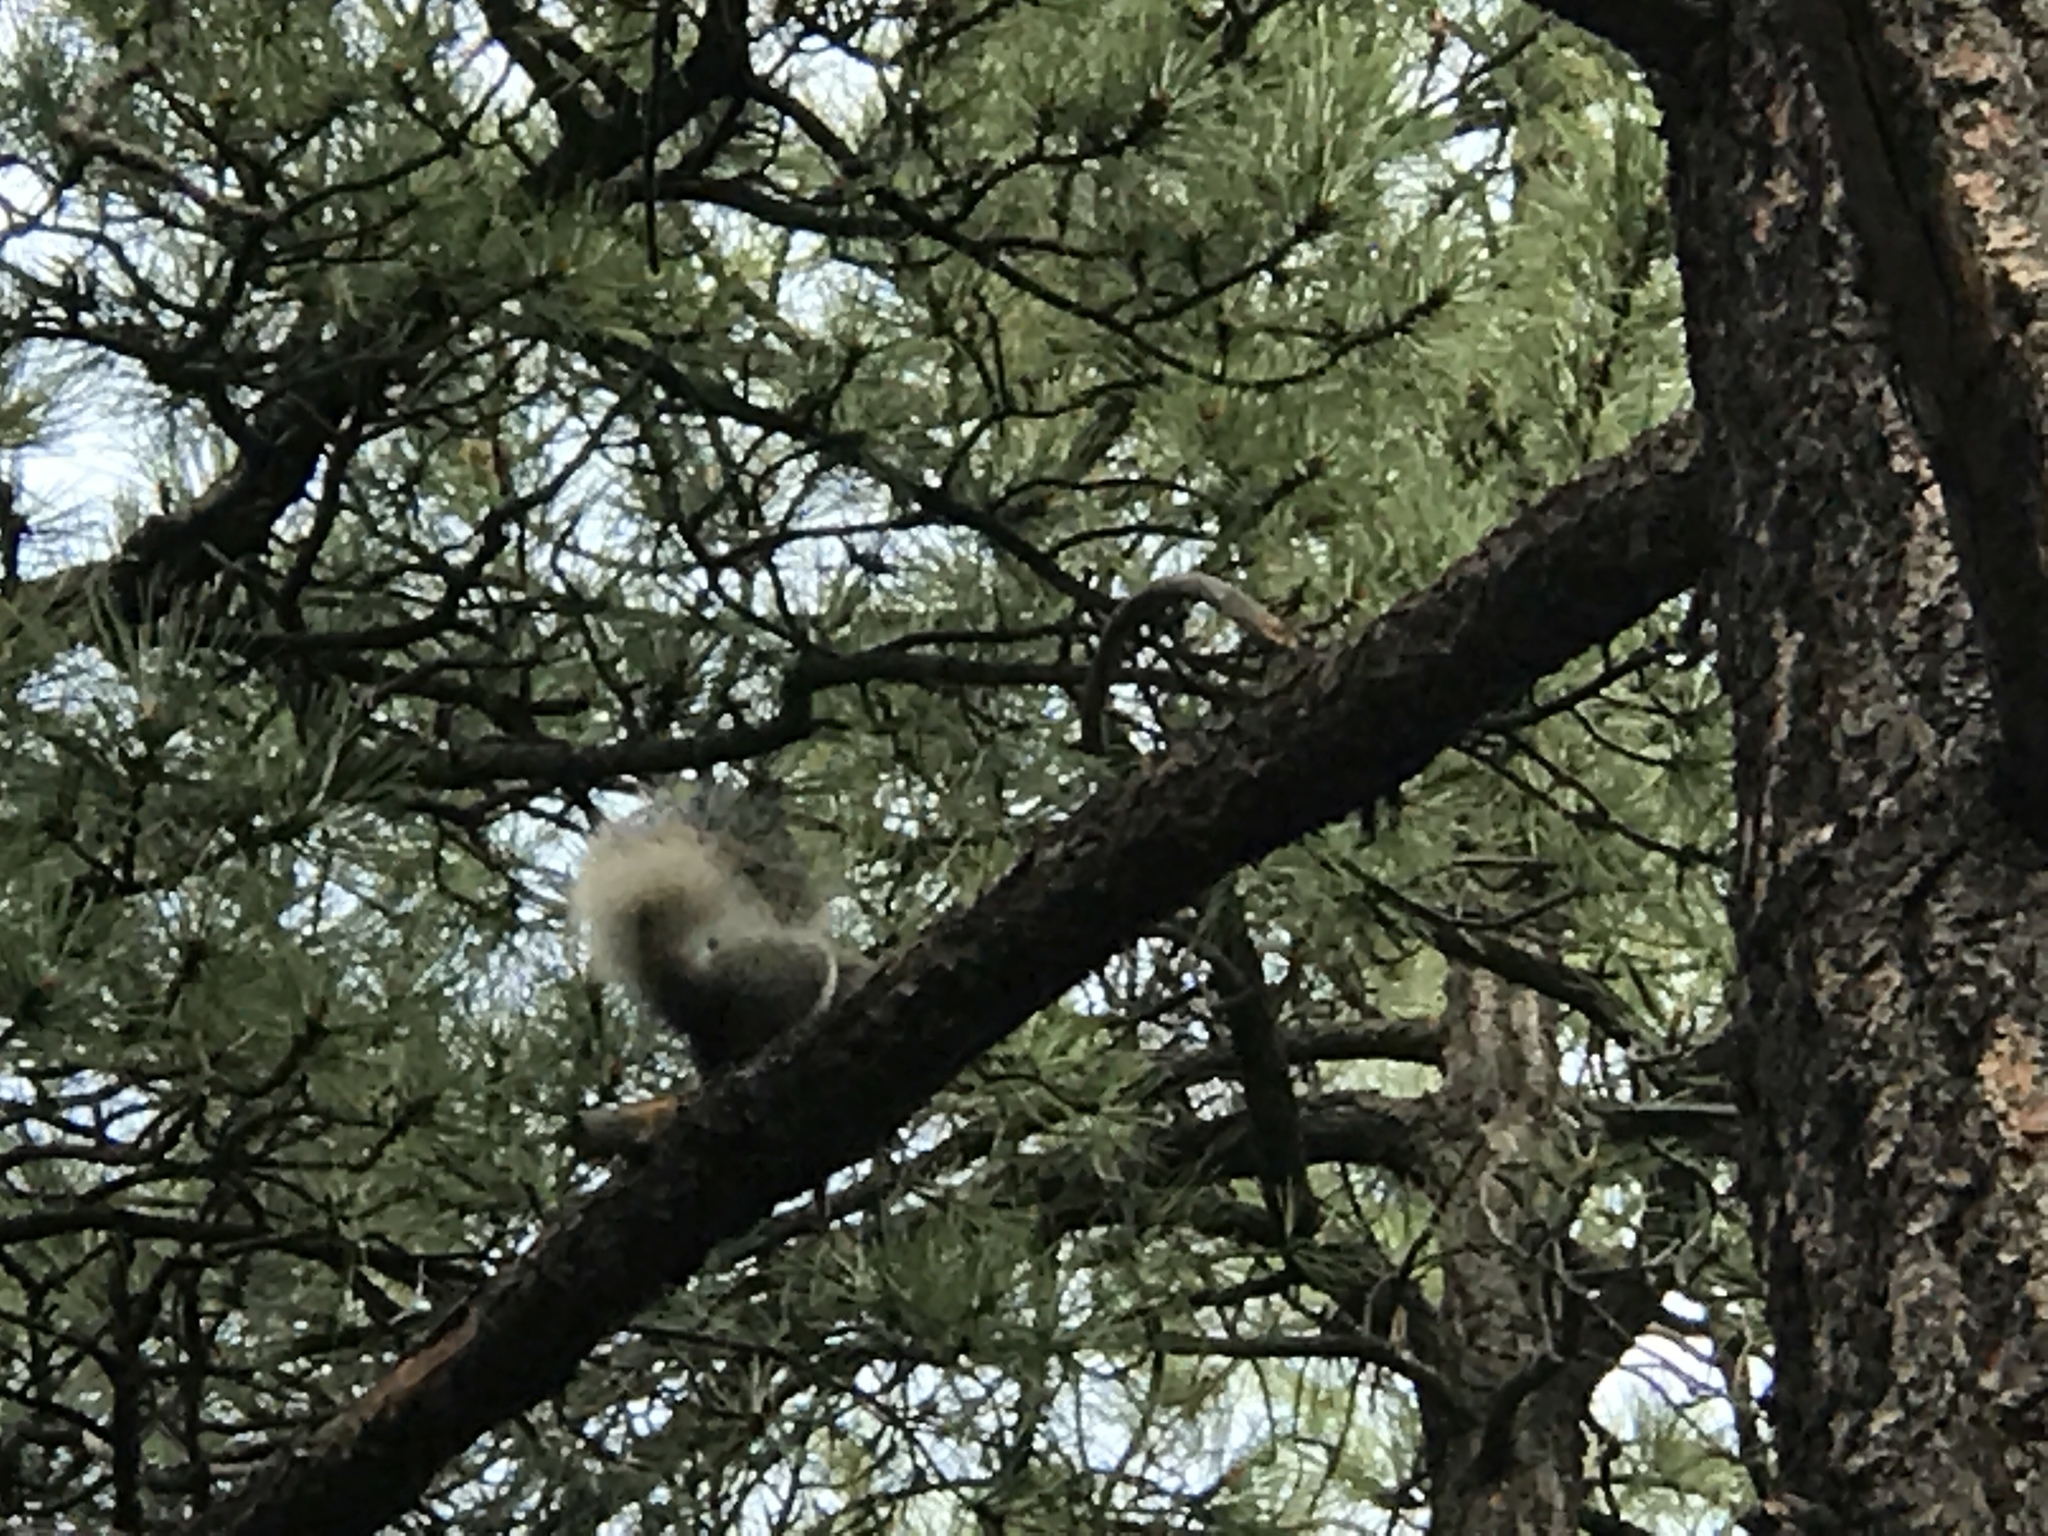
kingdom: Animalia
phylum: Chordata
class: Mammalia
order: Rodentia
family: Sciuridae
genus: Sciurus
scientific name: Sciurus aberti
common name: Abert's squirrel
